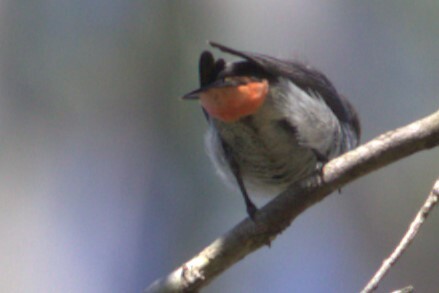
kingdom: Animalia
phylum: Chordata
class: Aves
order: Passeriformes
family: Dicaeidae
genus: Dicaeum
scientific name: Dicaeum hirundinaceum
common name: Mistletoebird
